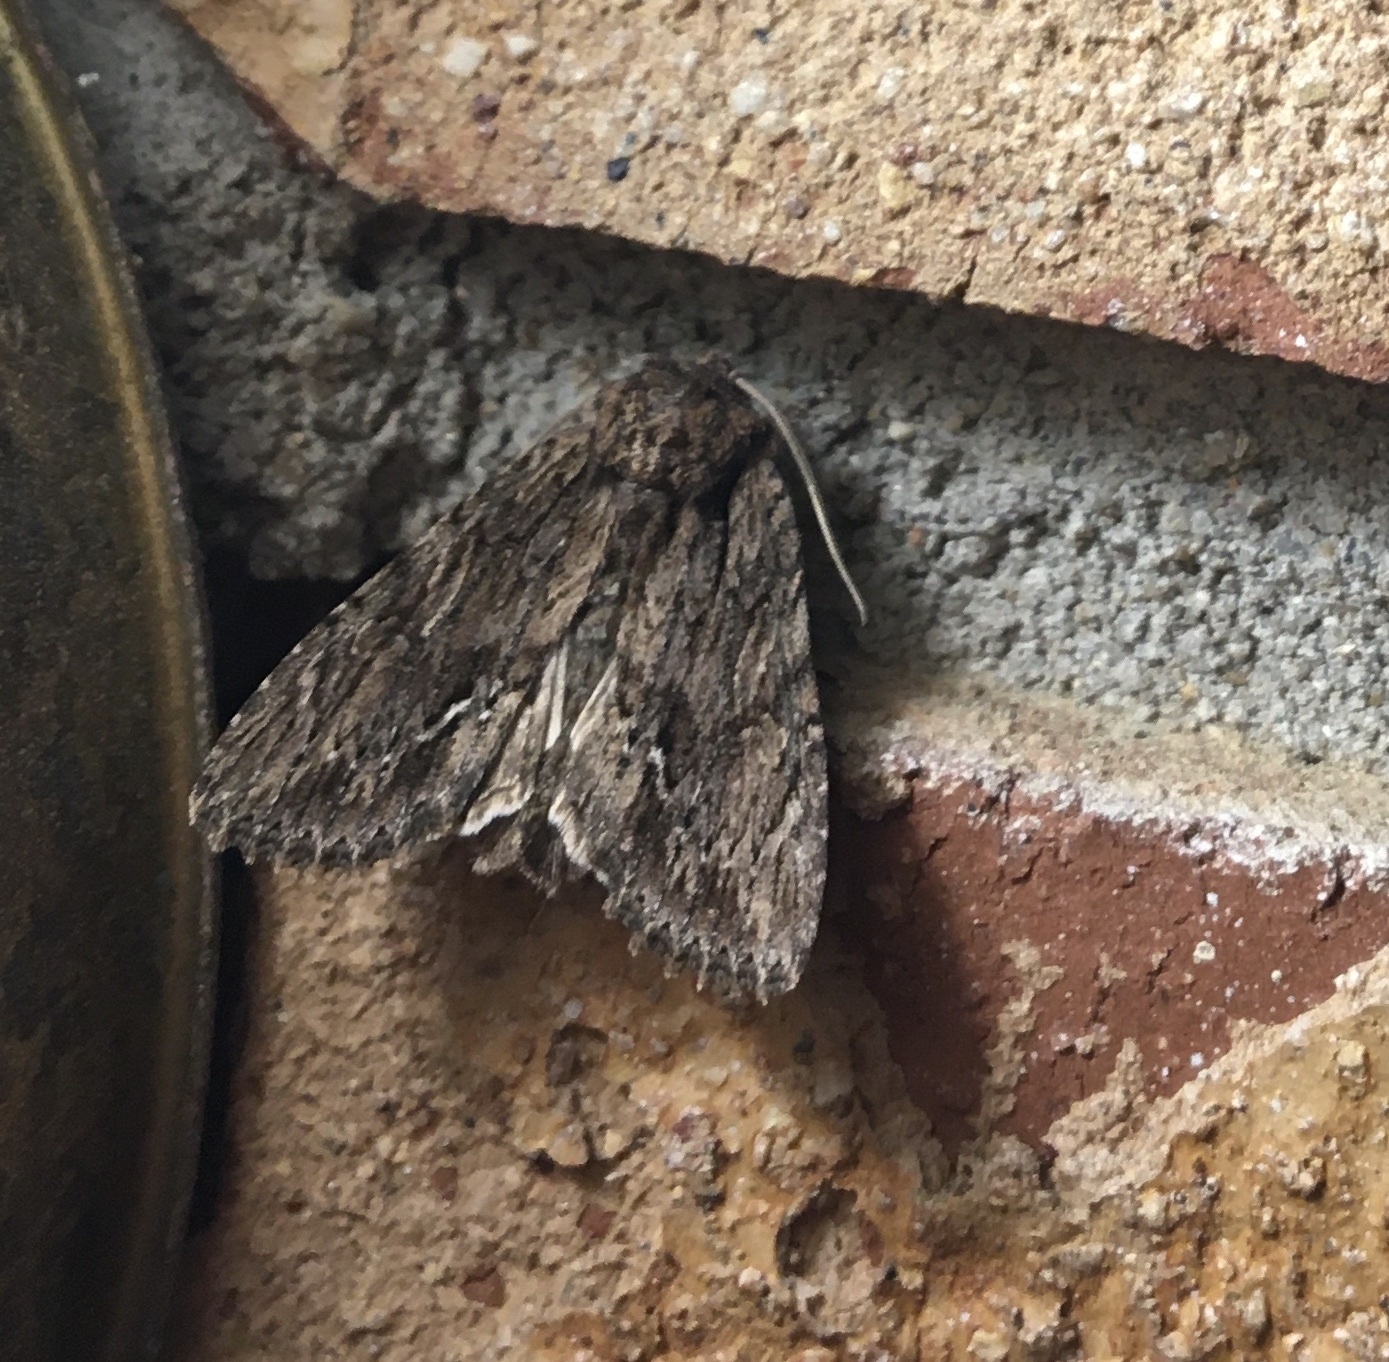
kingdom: Animalia
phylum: Arthropoda
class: Insecta
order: Lepidoptera
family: Noctuidae
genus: Achatia
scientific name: Achatia confusa
